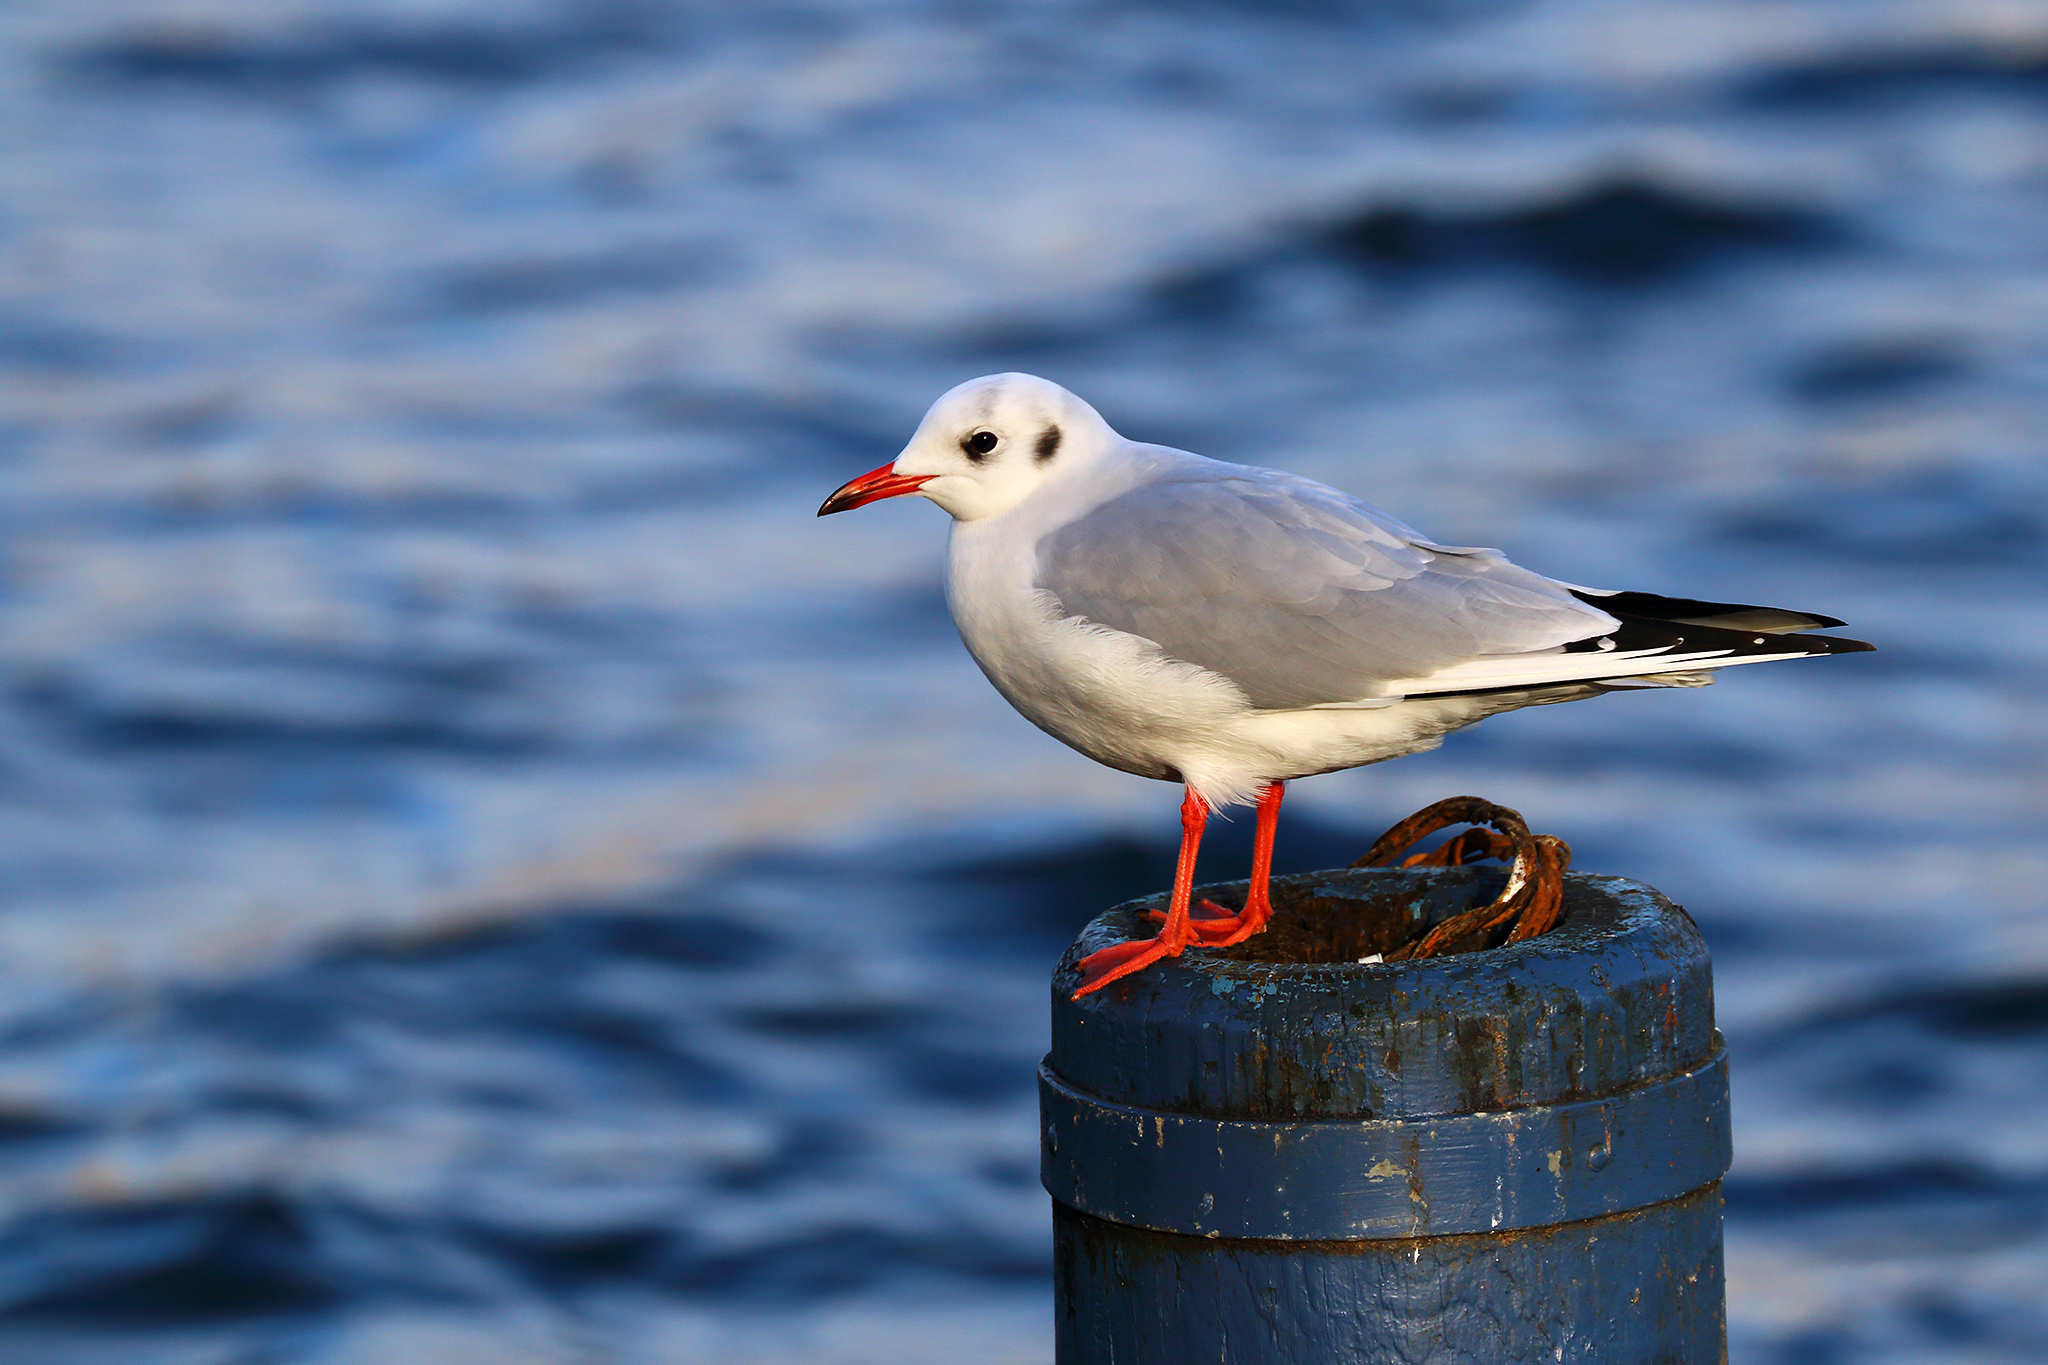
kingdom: Animalia
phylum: Chordata
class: Aves
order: Charadriiformes
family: Laridae
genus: Chroicocephalus
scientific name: Chroicocephalus ridibundus
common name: Black-headed gull
